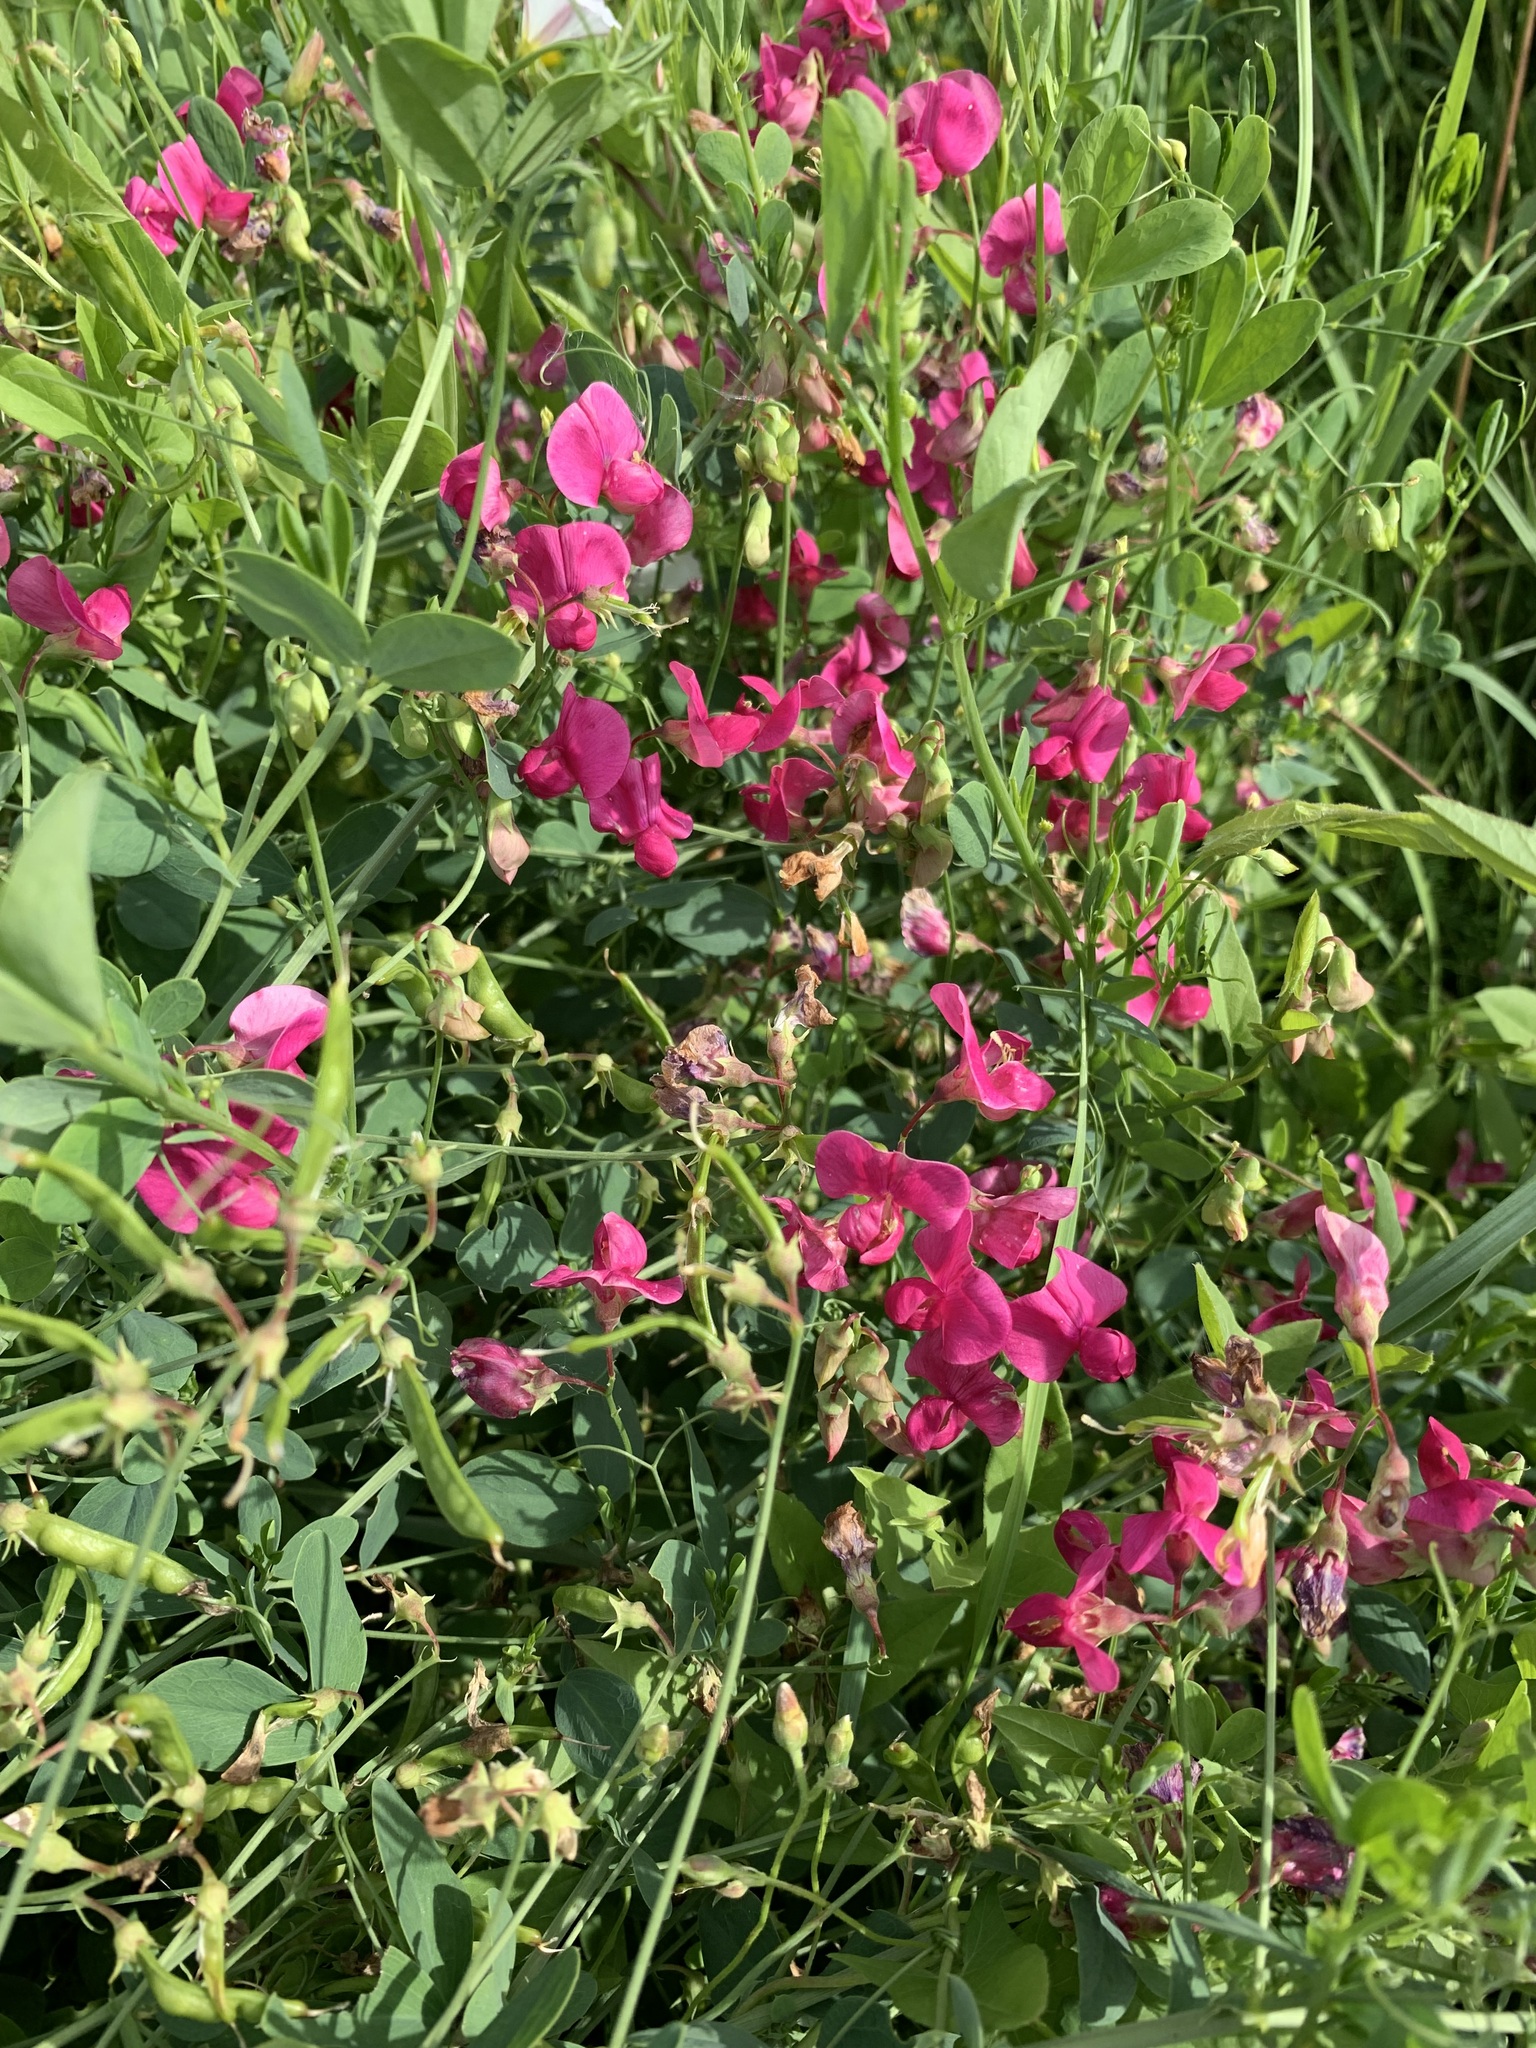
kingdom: Plantae
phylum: Tracheophyta
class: Magnoliopsida
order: Fabales
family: Fabaceae
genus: Lathyrus
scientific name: Lathyrus tuberosus
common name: Tuberous pea
